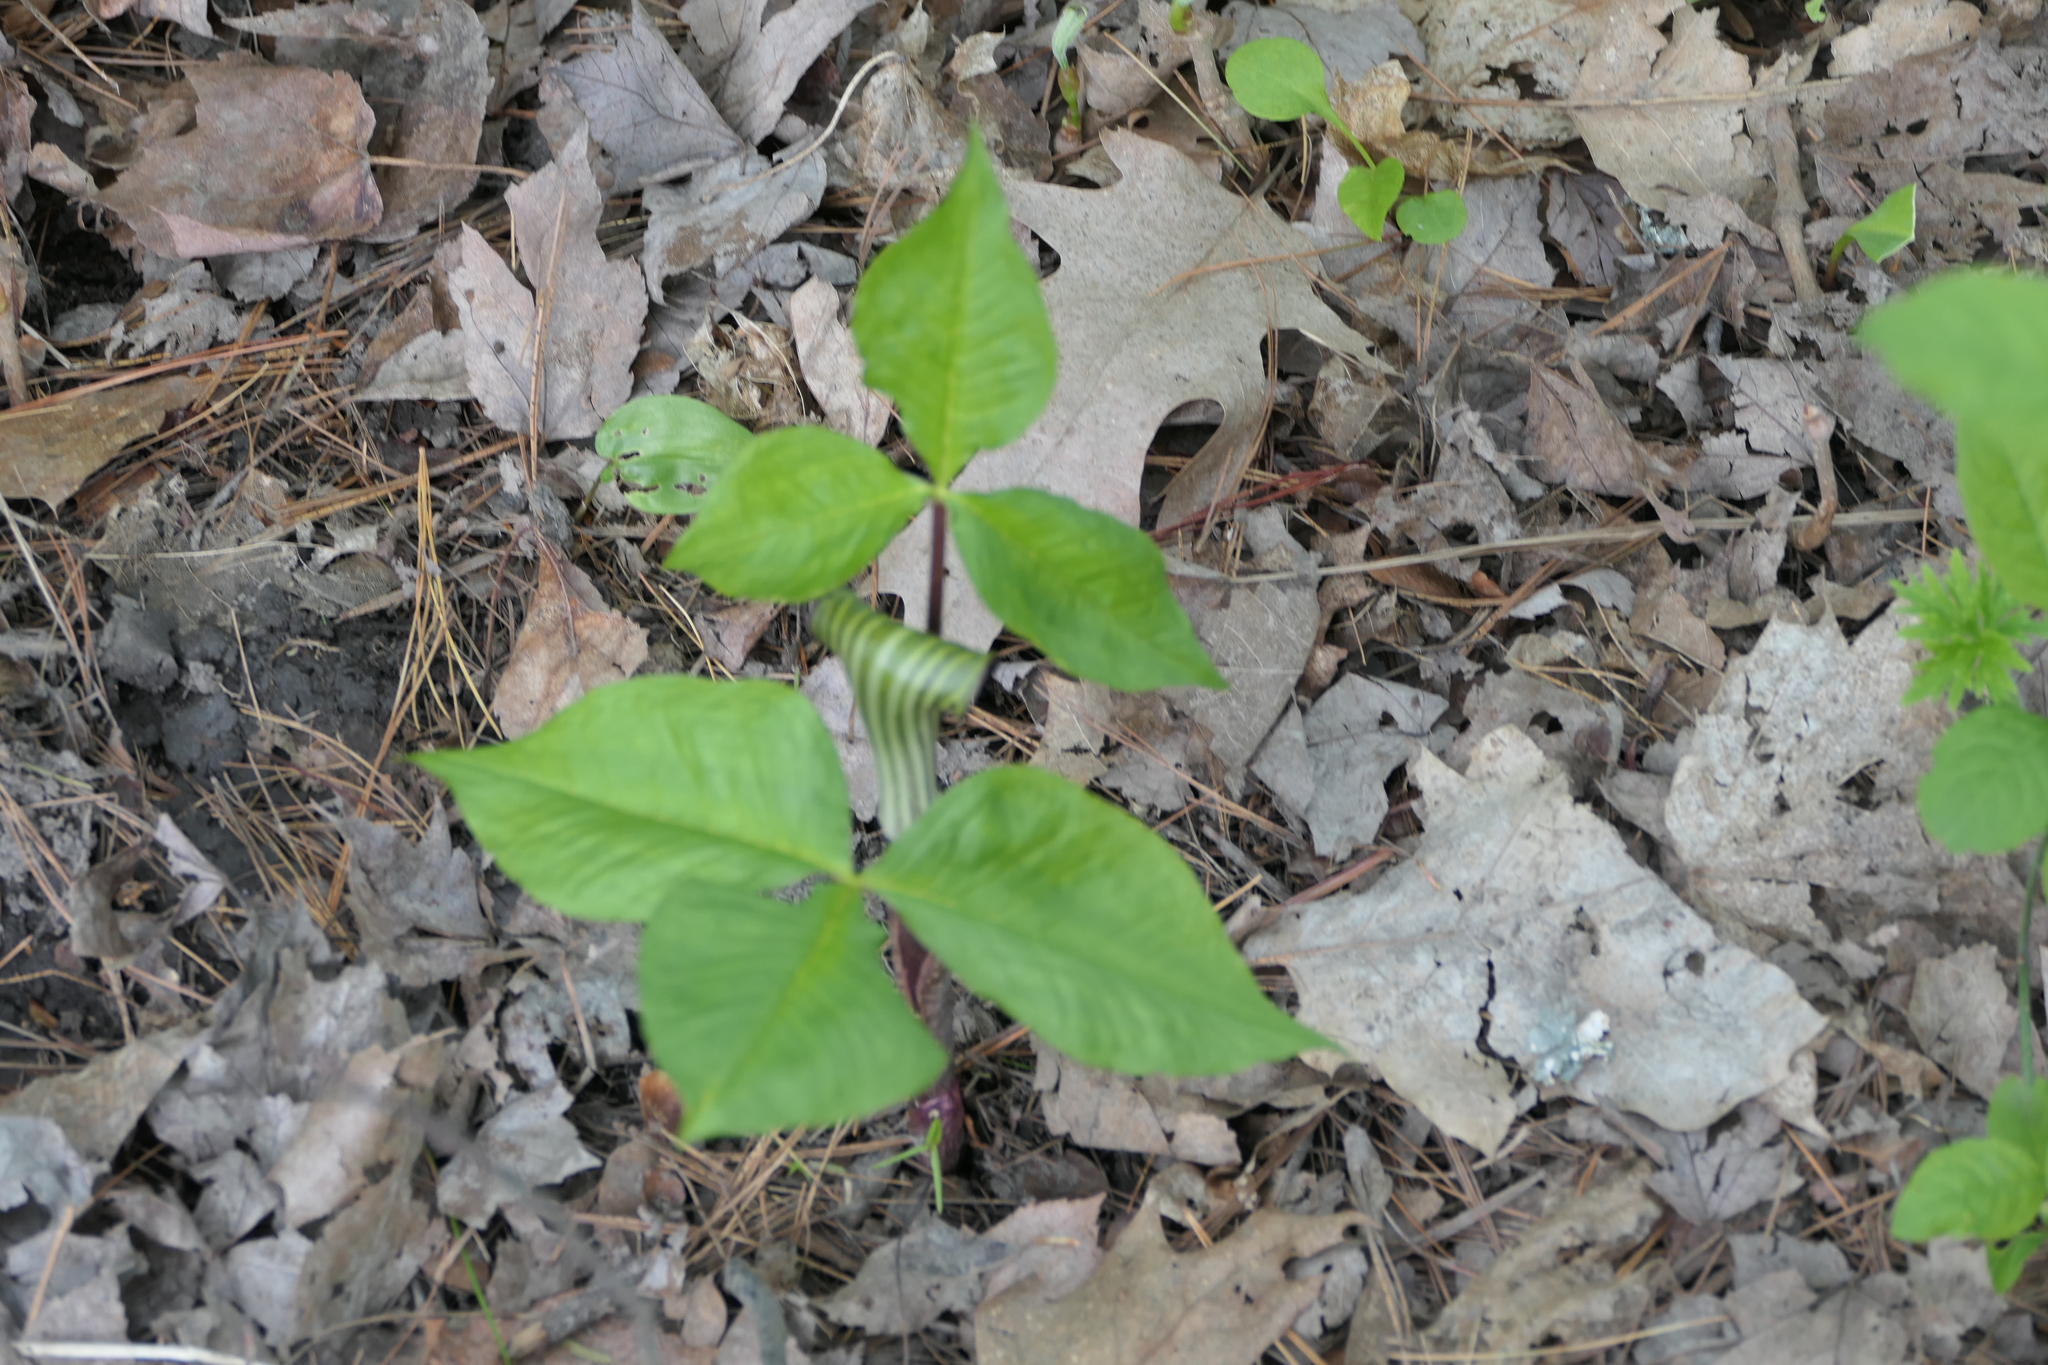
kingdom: Plantae
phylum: Tracheophyta
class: Liliopsida
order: Alismatales
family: Araceae
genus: Arisaema
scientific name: Arisaema triphyllum
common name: Jack-in-the-pulpit
